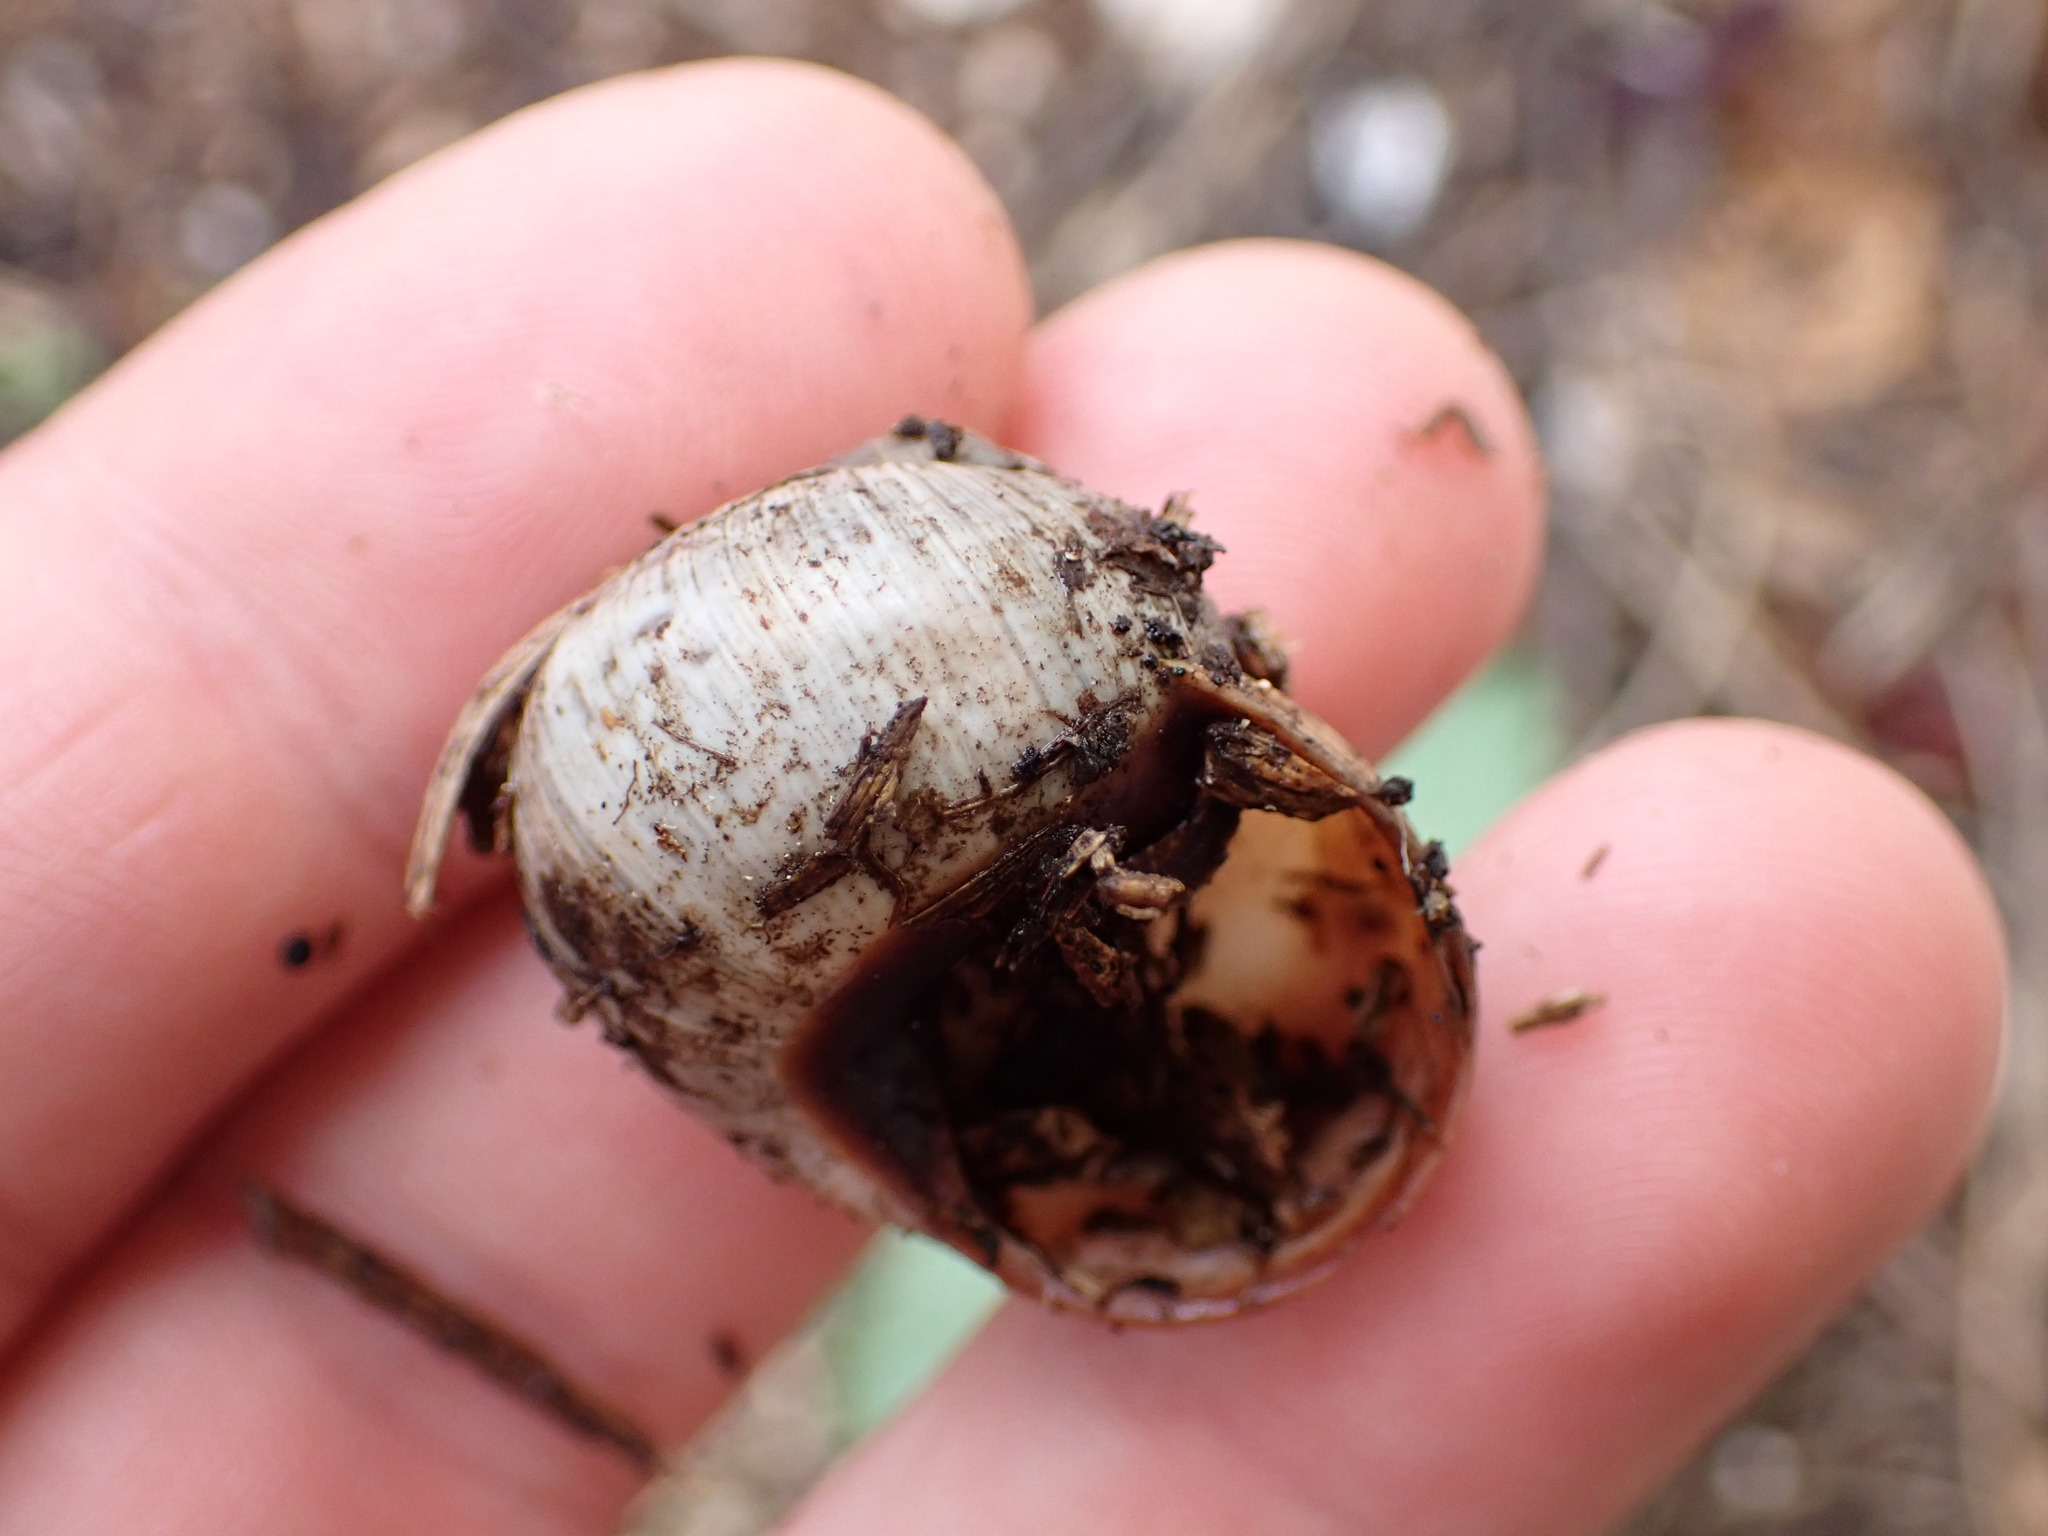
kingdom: Animalia
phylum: Mollusca
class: Gastropoda
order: Stylommatophora
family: Helicidae
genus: Helix
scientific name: Helix melanostoma
